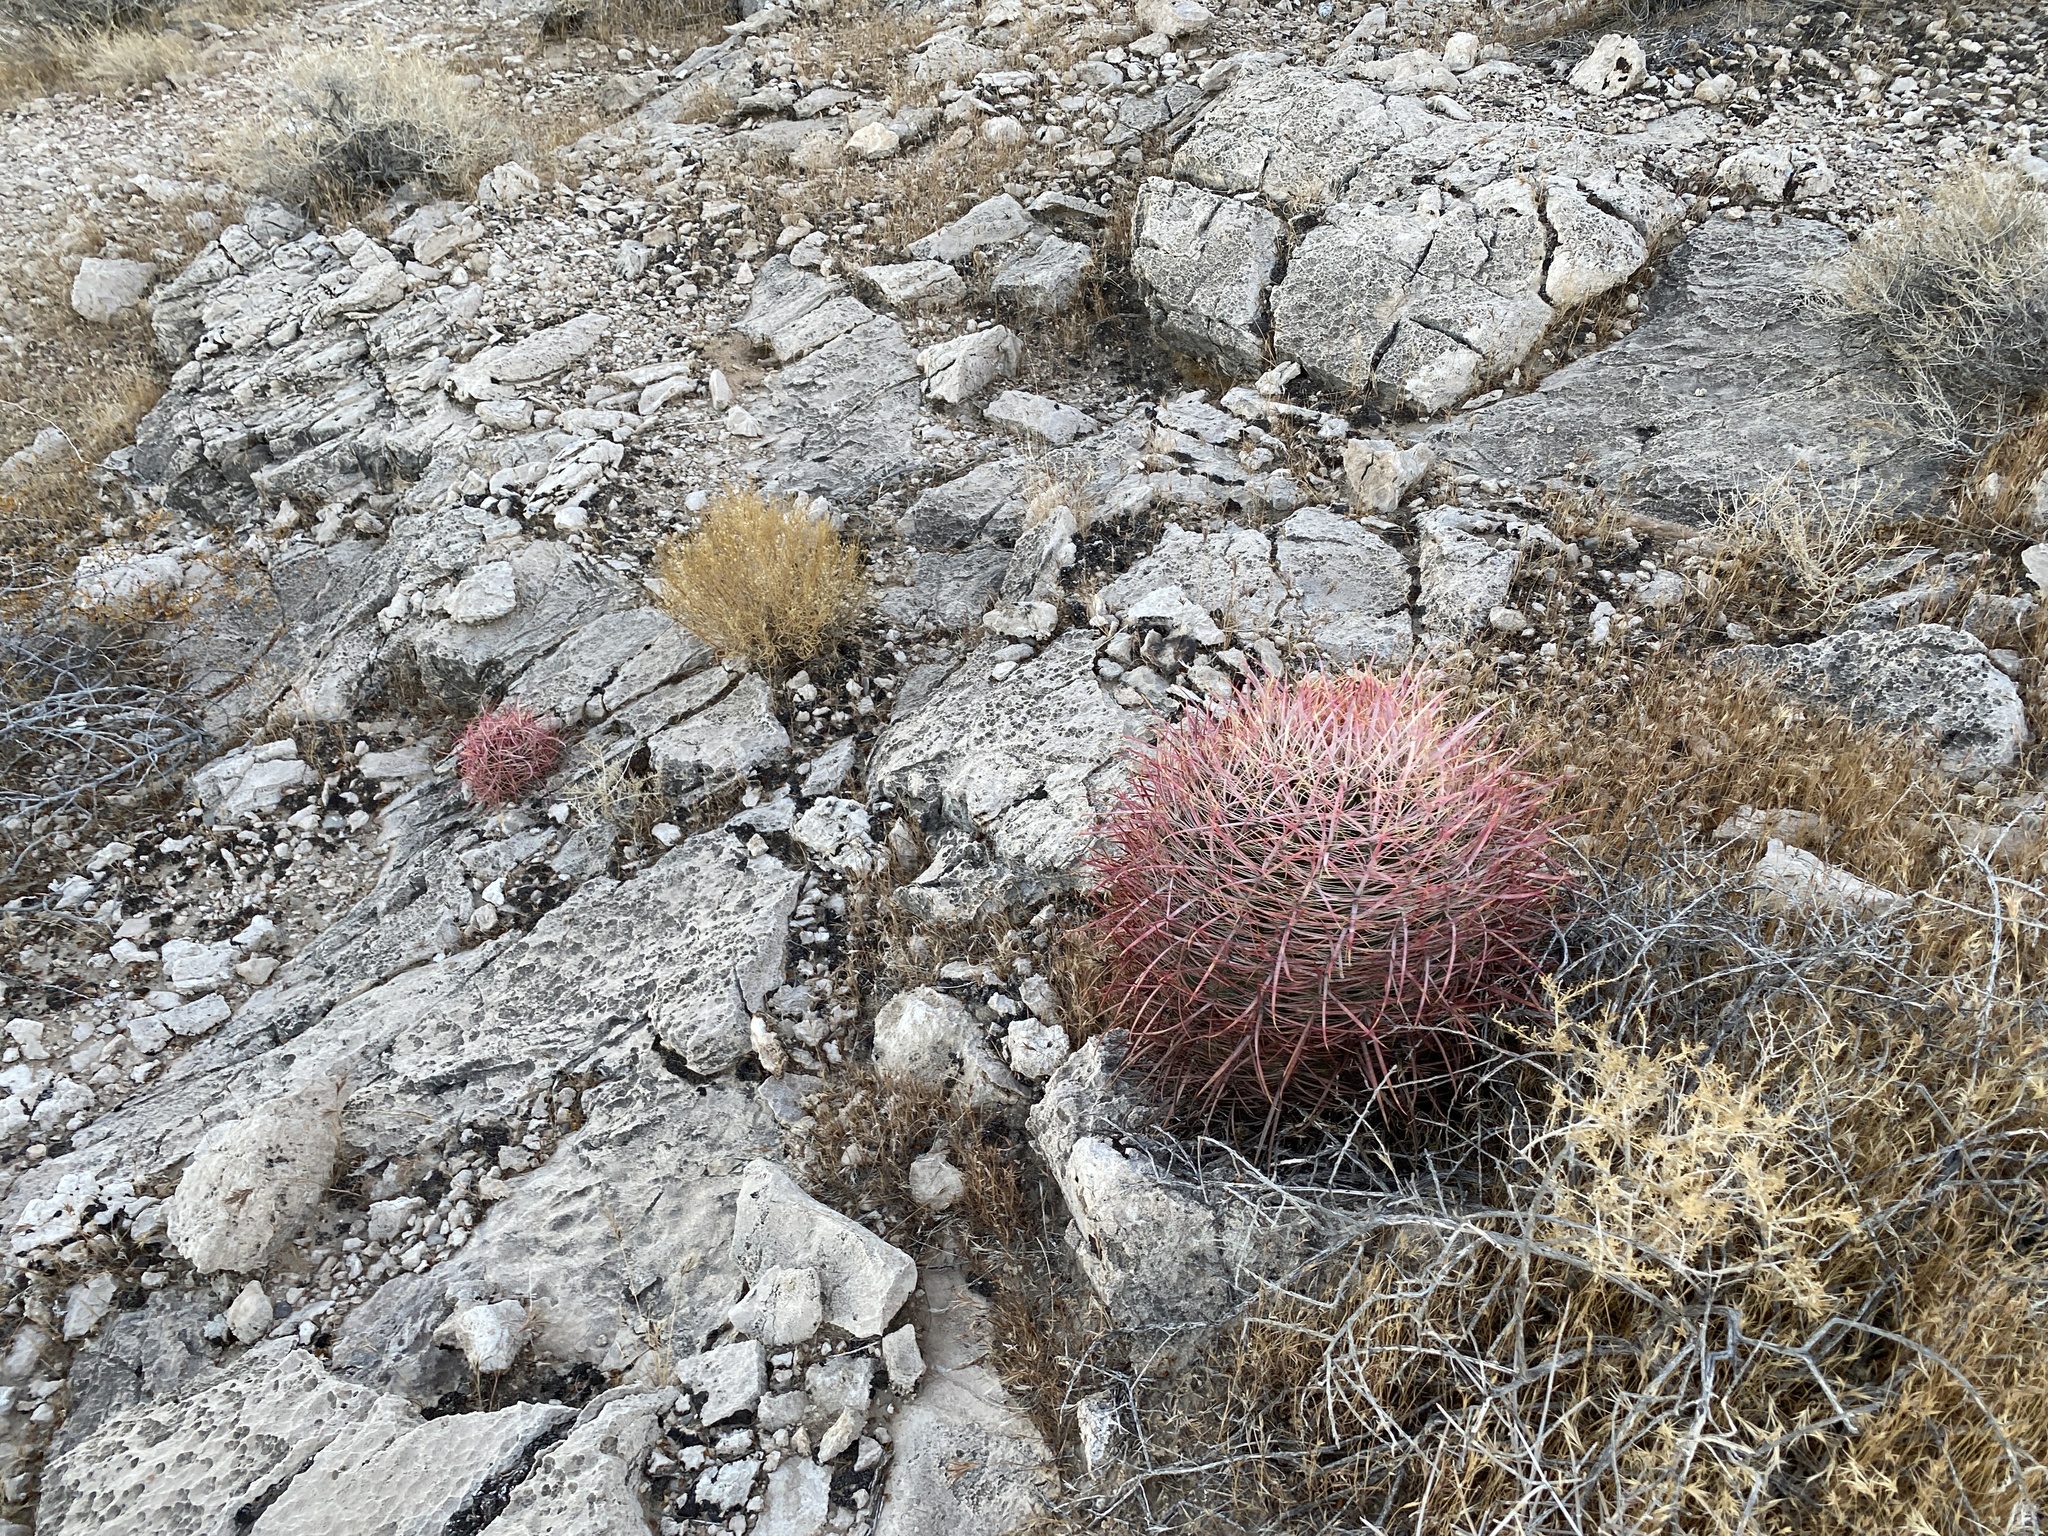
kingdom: Plantae
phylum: Tracheophyta
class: Magnoliopsida
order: Caryophyllales
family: Cactaceae
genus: Ferocactus
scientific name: Ferocactus cylindraceus
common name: California barrel cactus
